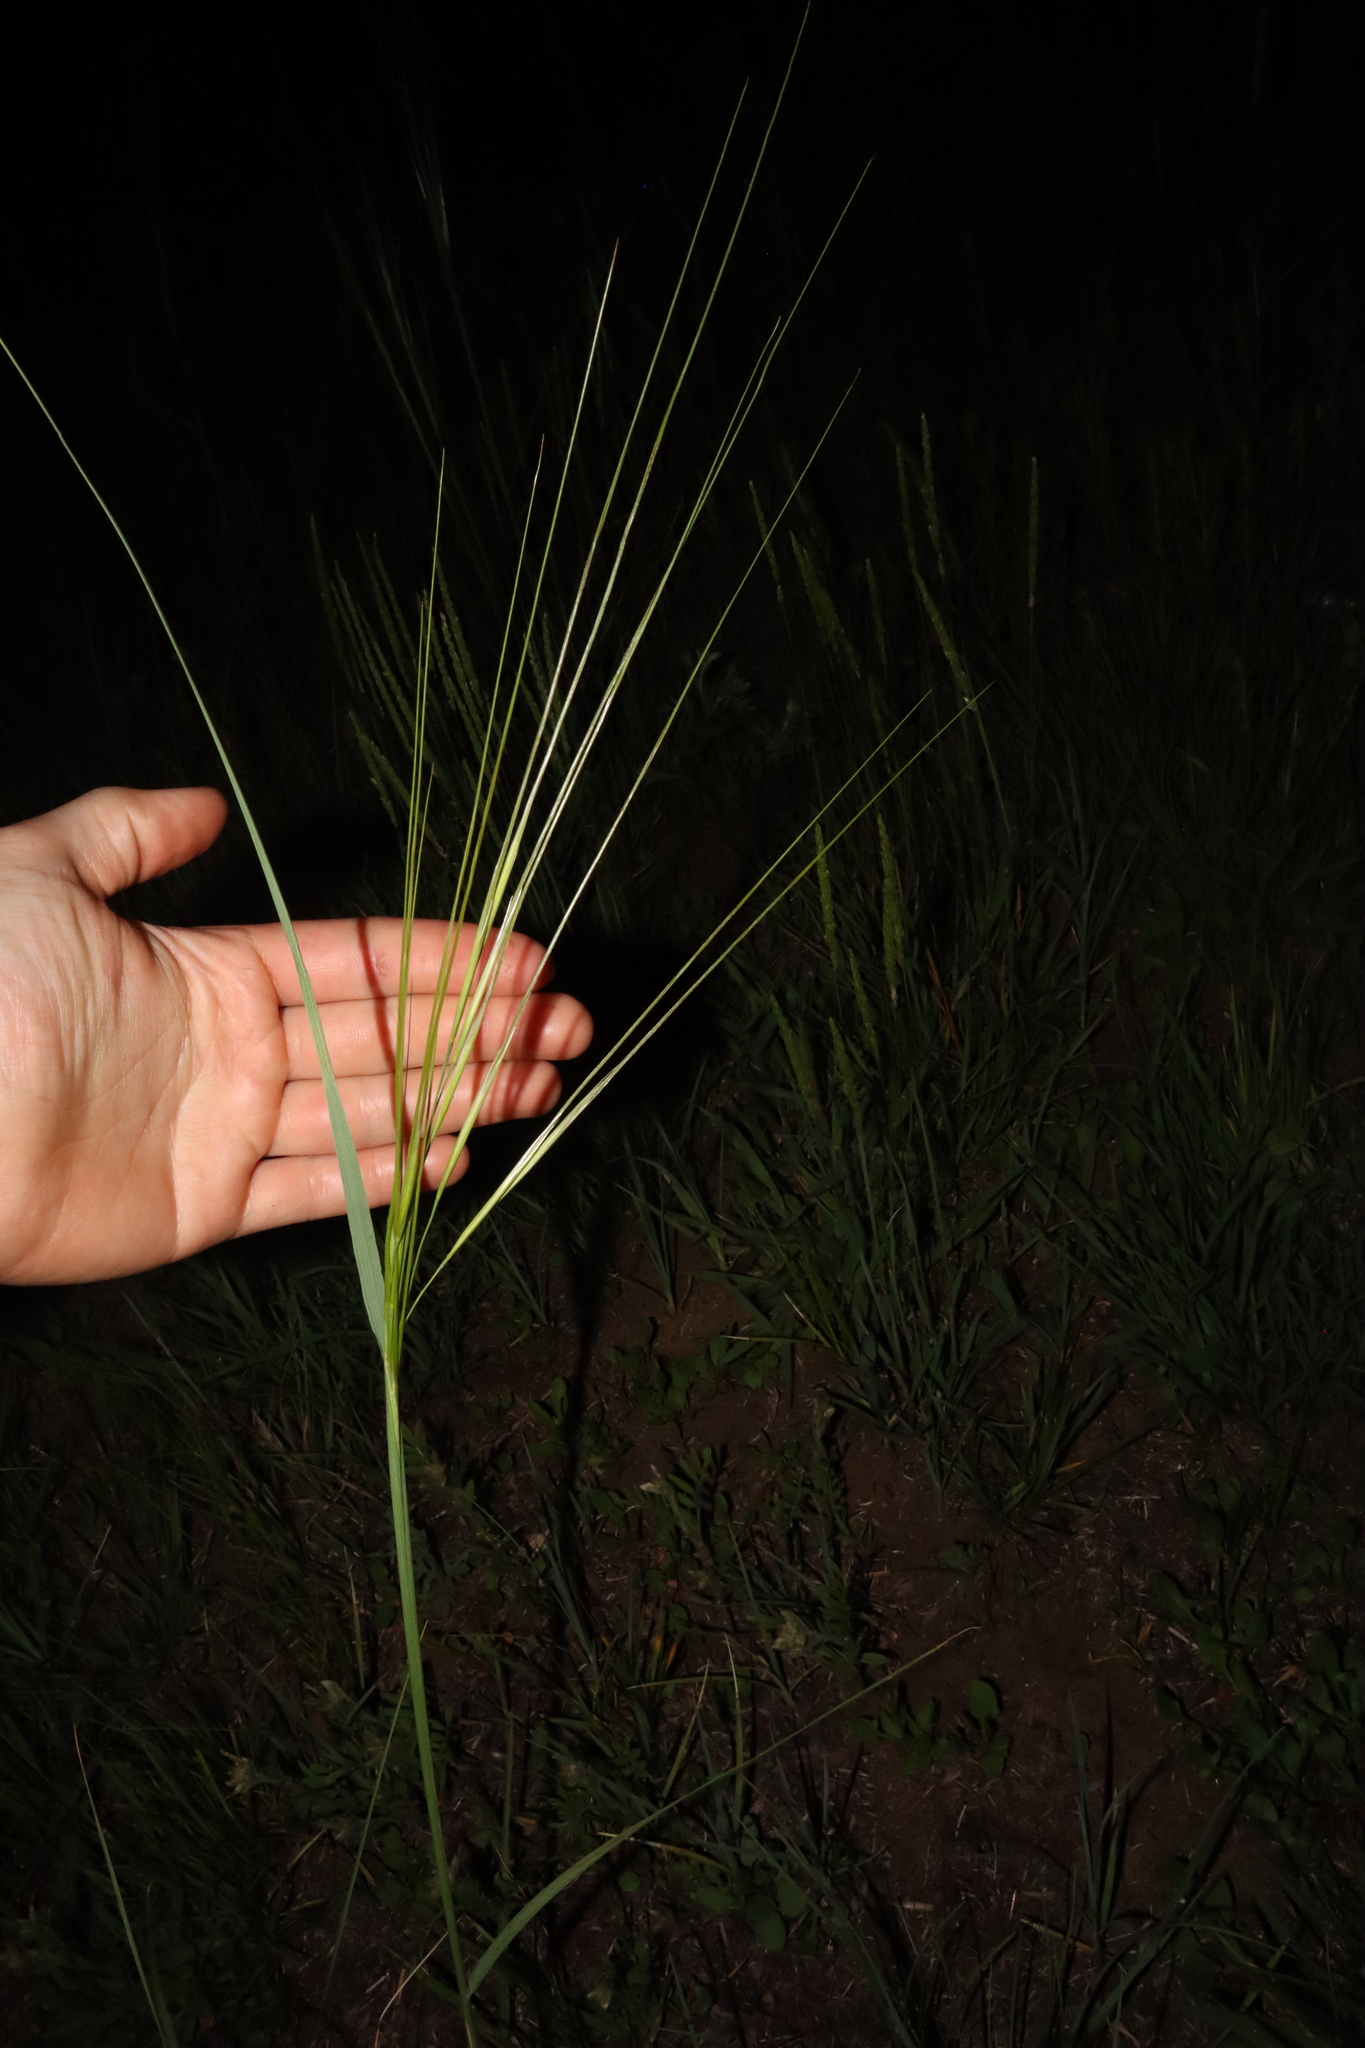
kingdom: Plantae
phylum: Tracheophyta
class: Liliopsida
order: Poales
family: Poaceae
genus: Hesperostipa
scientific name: Hesperostipa spartea
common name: Porcupine grass
